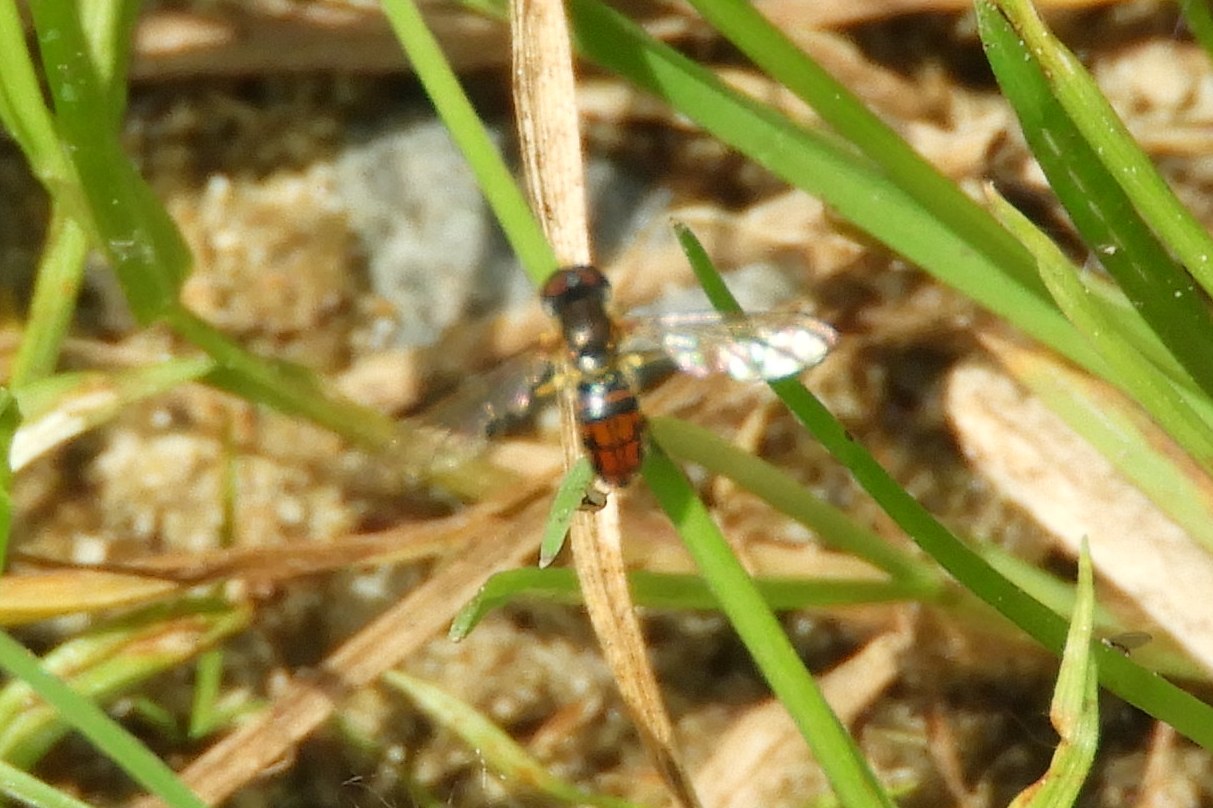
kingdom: Animalia
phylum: Arthropoda
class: Insecta
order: Diptera
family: Syrphidae
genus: Toxomerus
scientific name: Toxomerus boscii
